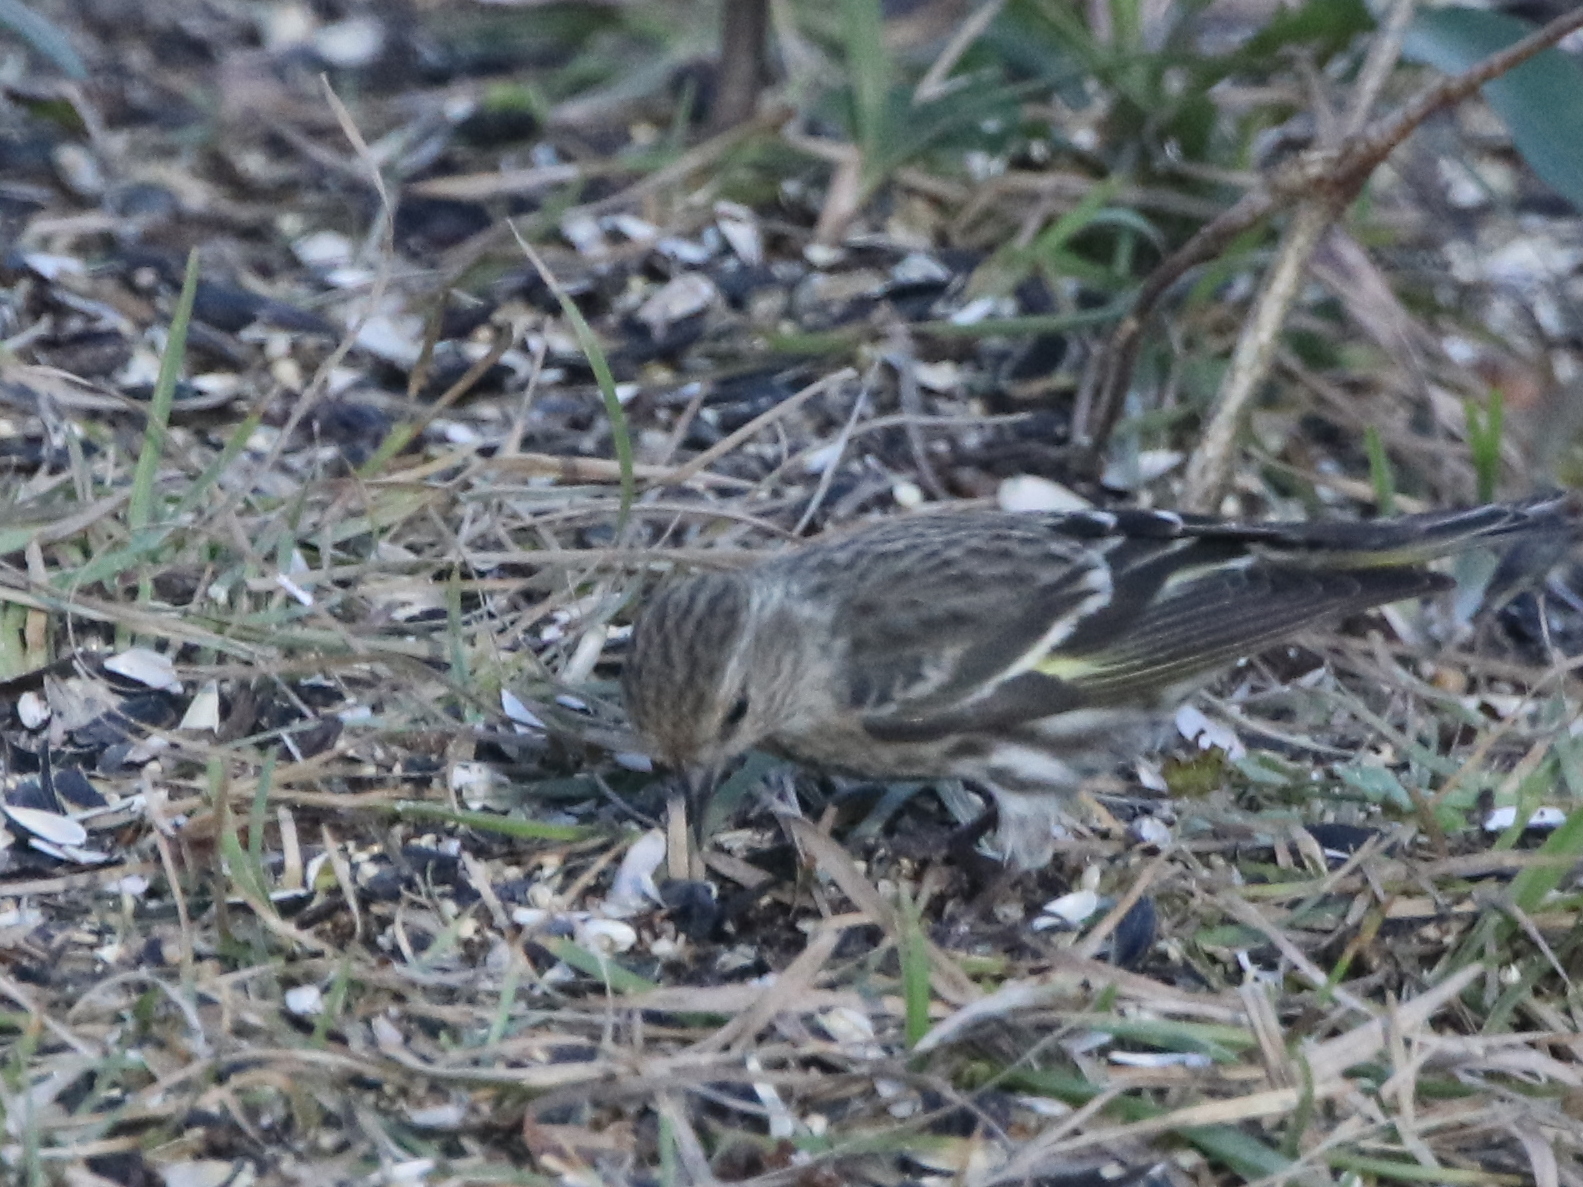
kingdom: Animalia
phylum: Chordata
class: Aves
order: Passeriformes
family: Fringillidae
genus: Spinus
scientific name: Spinus pinus
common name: Pine siskin
